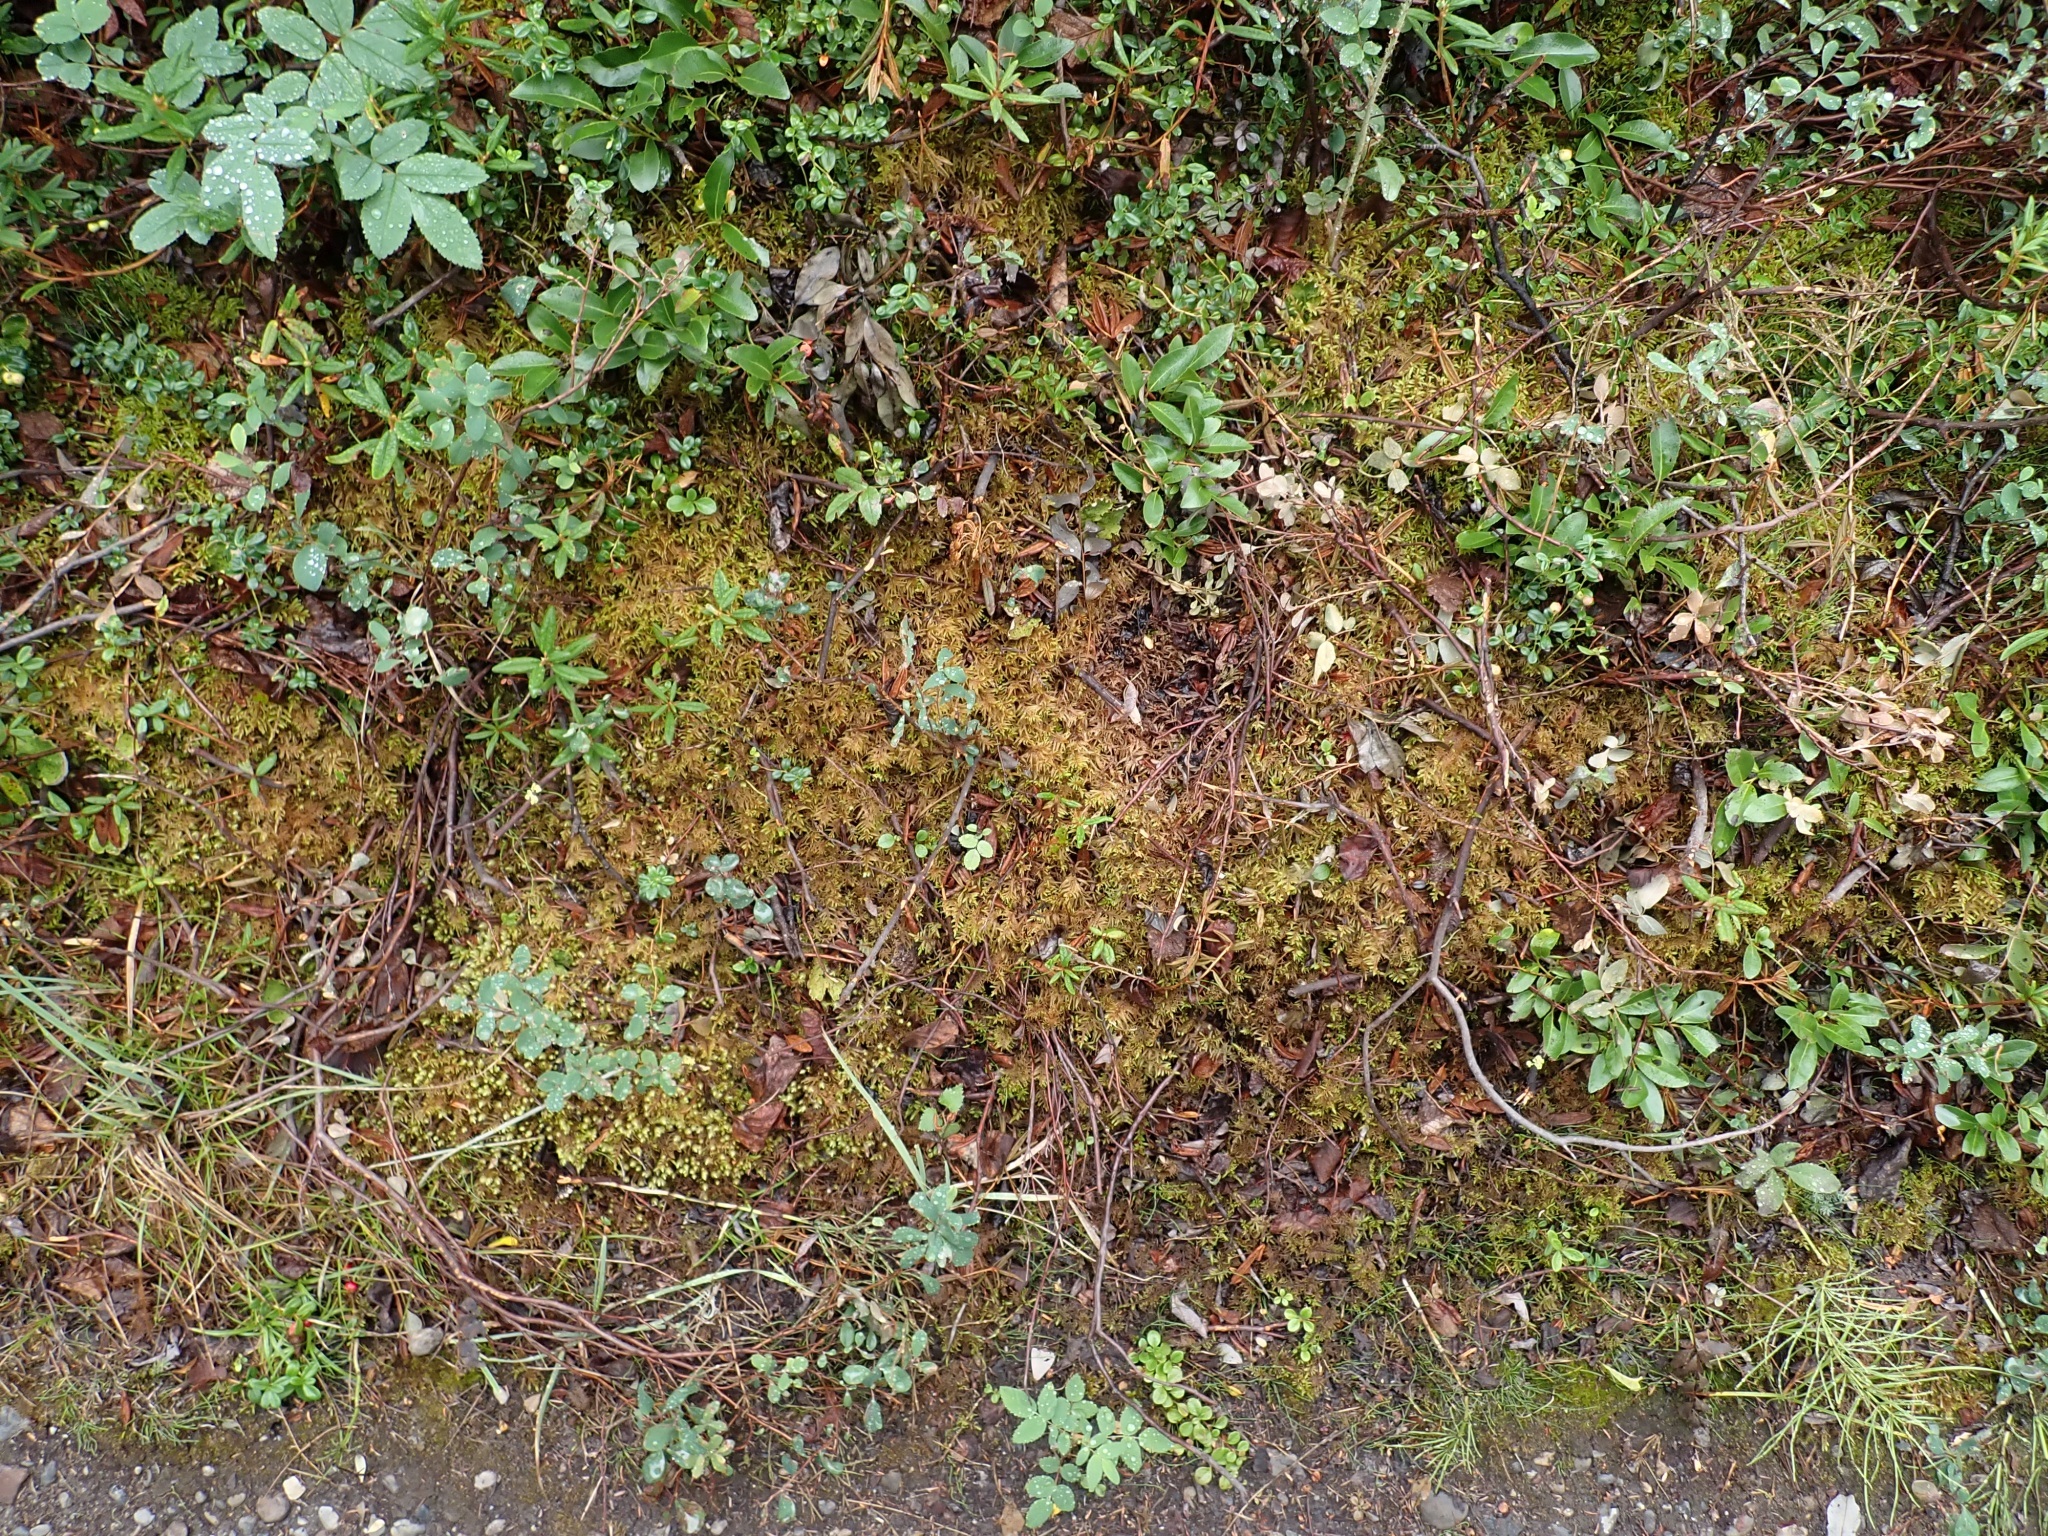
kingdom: Plantae
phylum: Bryophyta
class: Bryopsida
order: Hypnales
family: Hylocomiaceae
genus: Hylocomium
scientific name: Hylocomium splendens
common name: Stairstep moss
